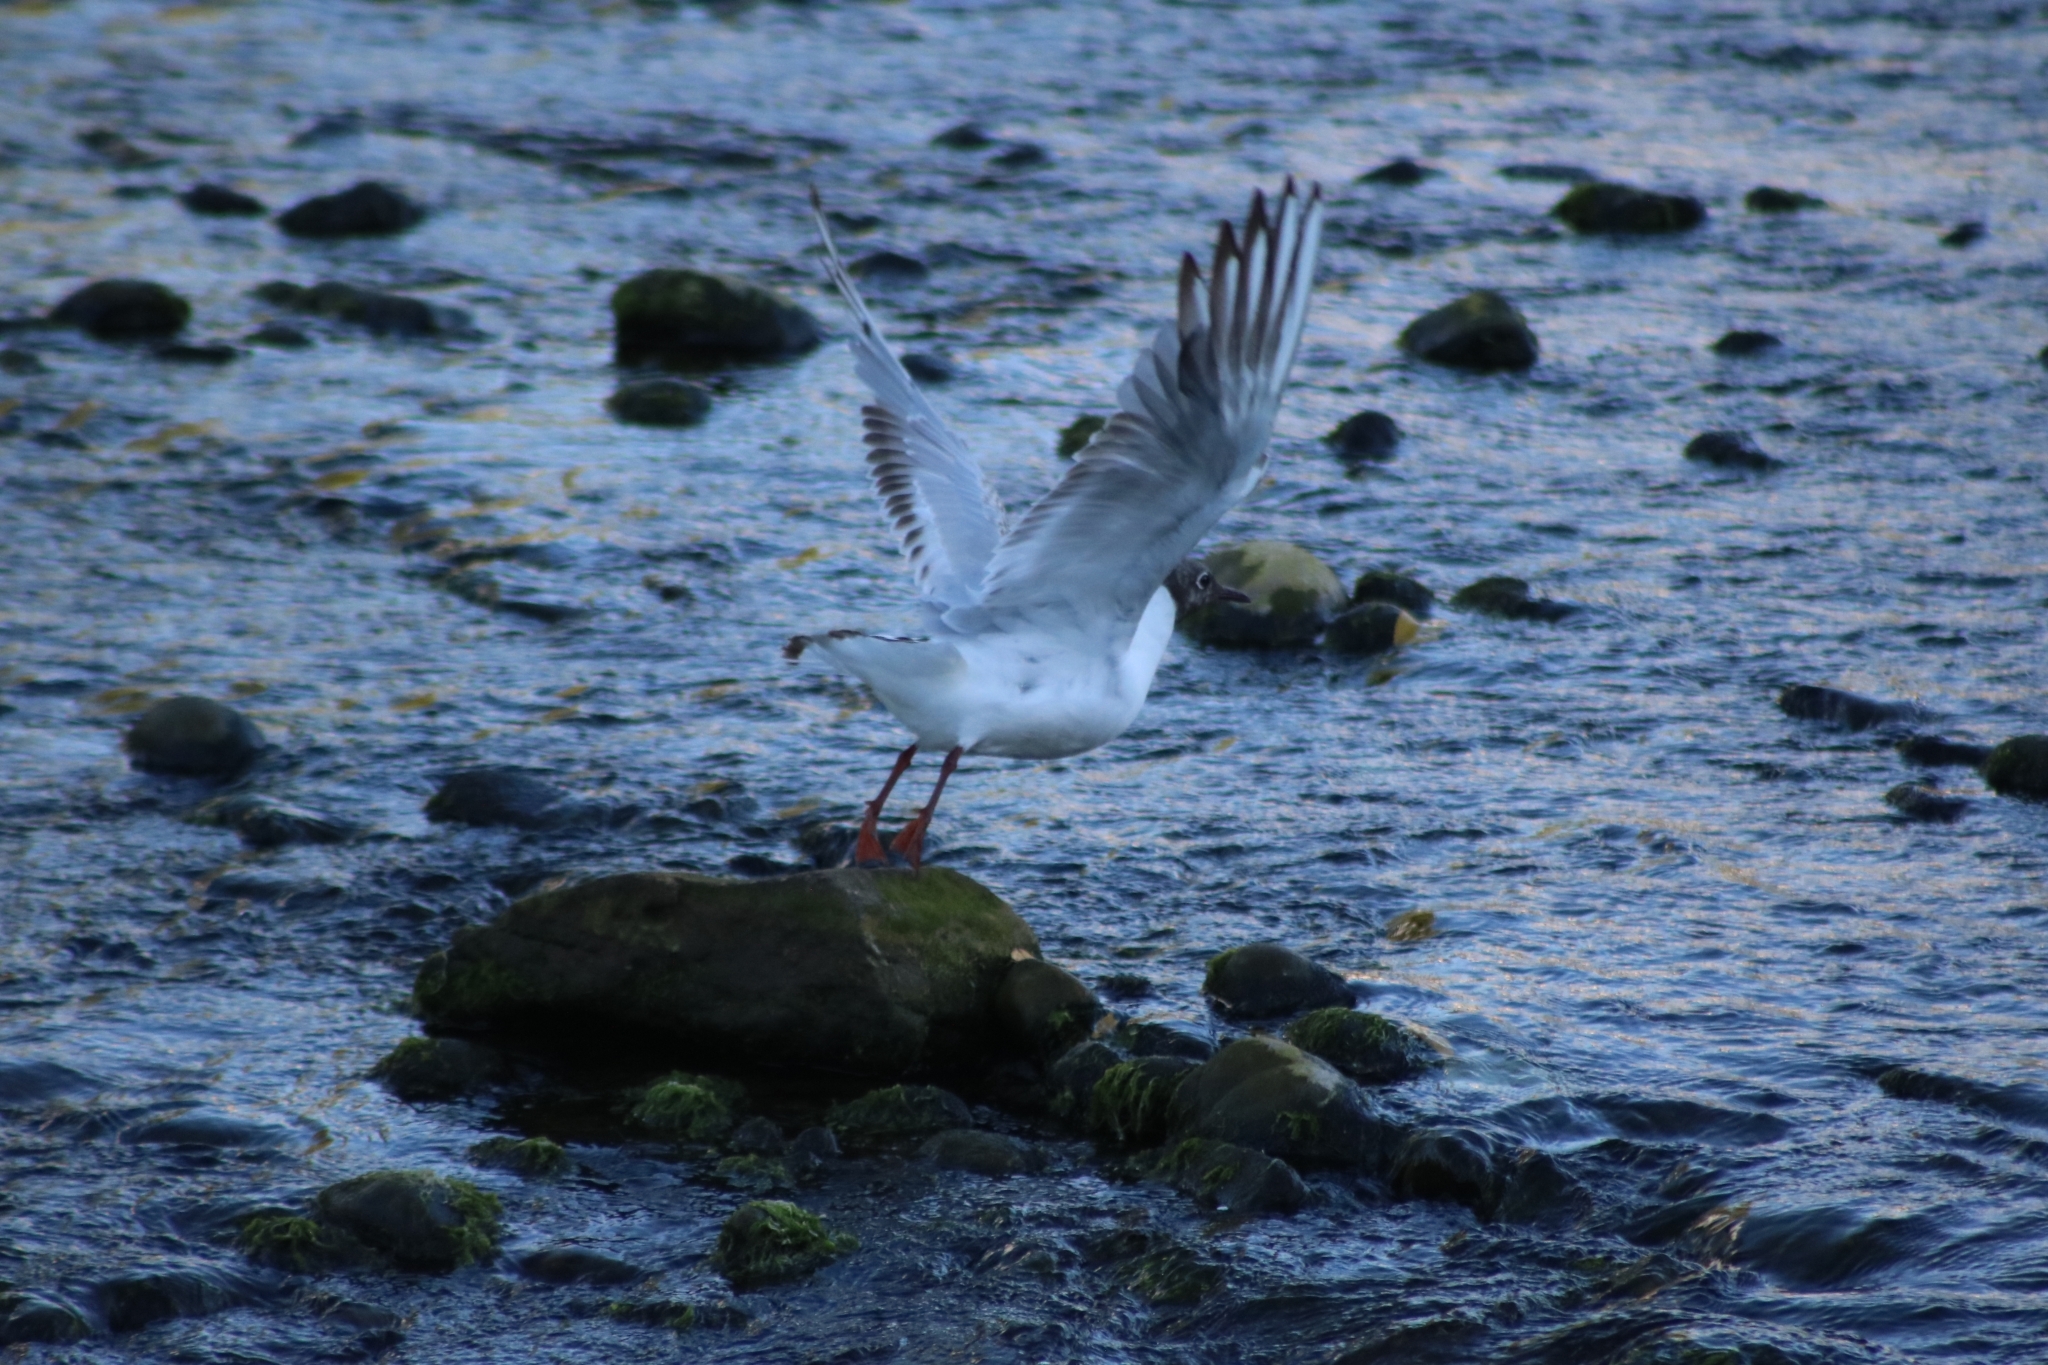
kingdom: Animalia
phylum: Chordata
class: Aves
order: Charadriiformes
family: Laridae
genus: Chroicocephalus
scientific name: Chroicocephalus ridibundus
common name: Black-headed gull
